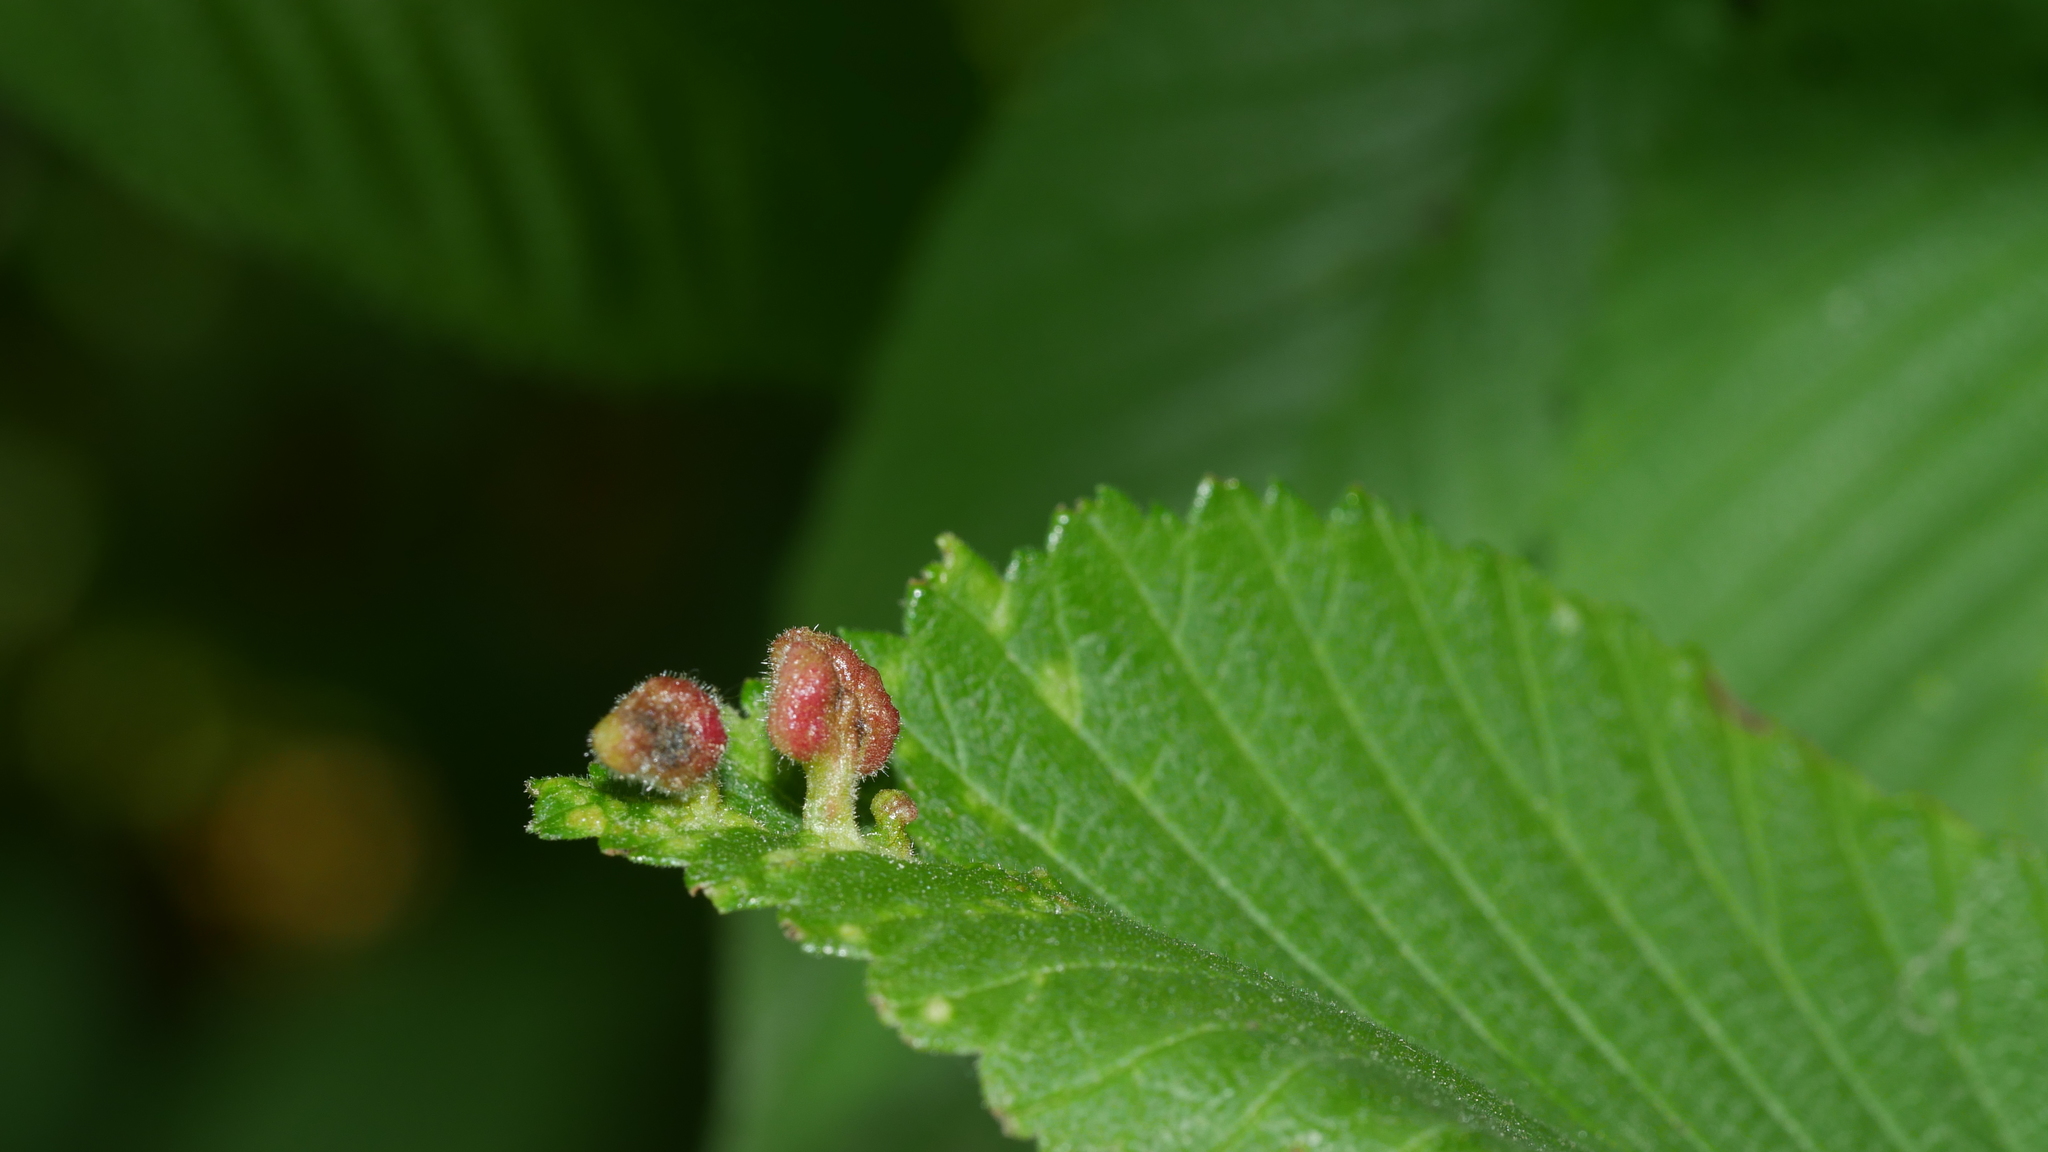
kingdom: Animalia
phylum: Arthropoda
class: Insecta
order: Hemiptera
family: Aphididae
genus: Tetraneura
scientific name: Tetraneura nigriabdominalis
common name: Aphid
